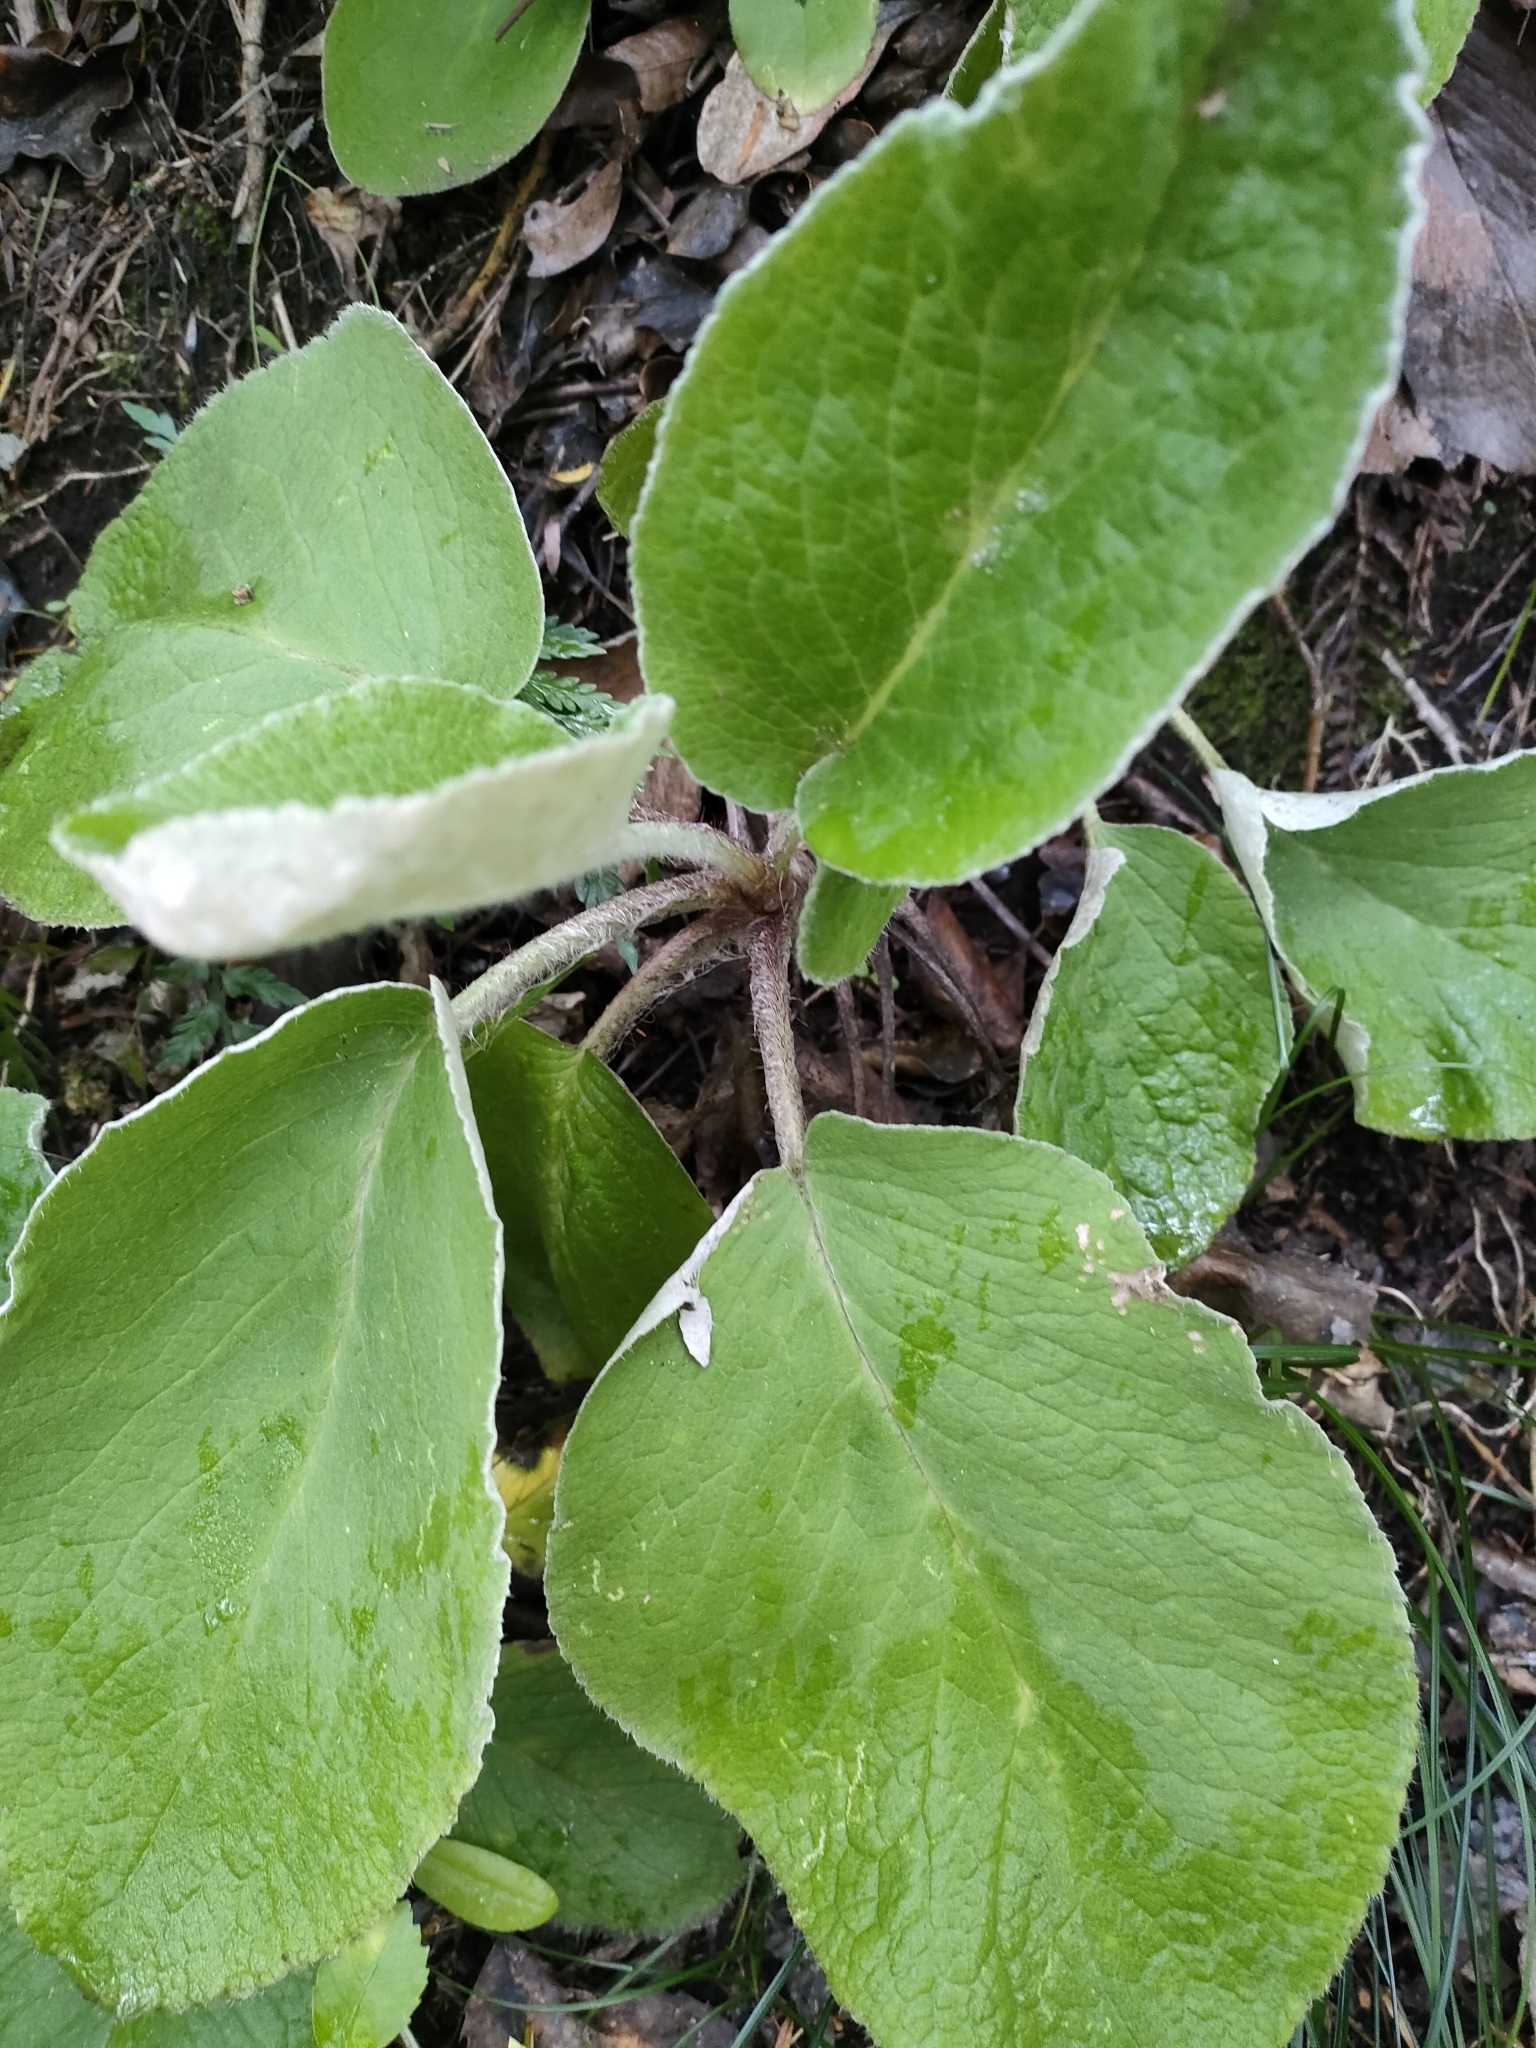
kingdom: Plantae
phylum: Tracheophyta
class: Magnoliopsida
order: Asterales
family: Asteraceae
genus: Brachyglottis
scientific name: Brachyglottis lagopus
